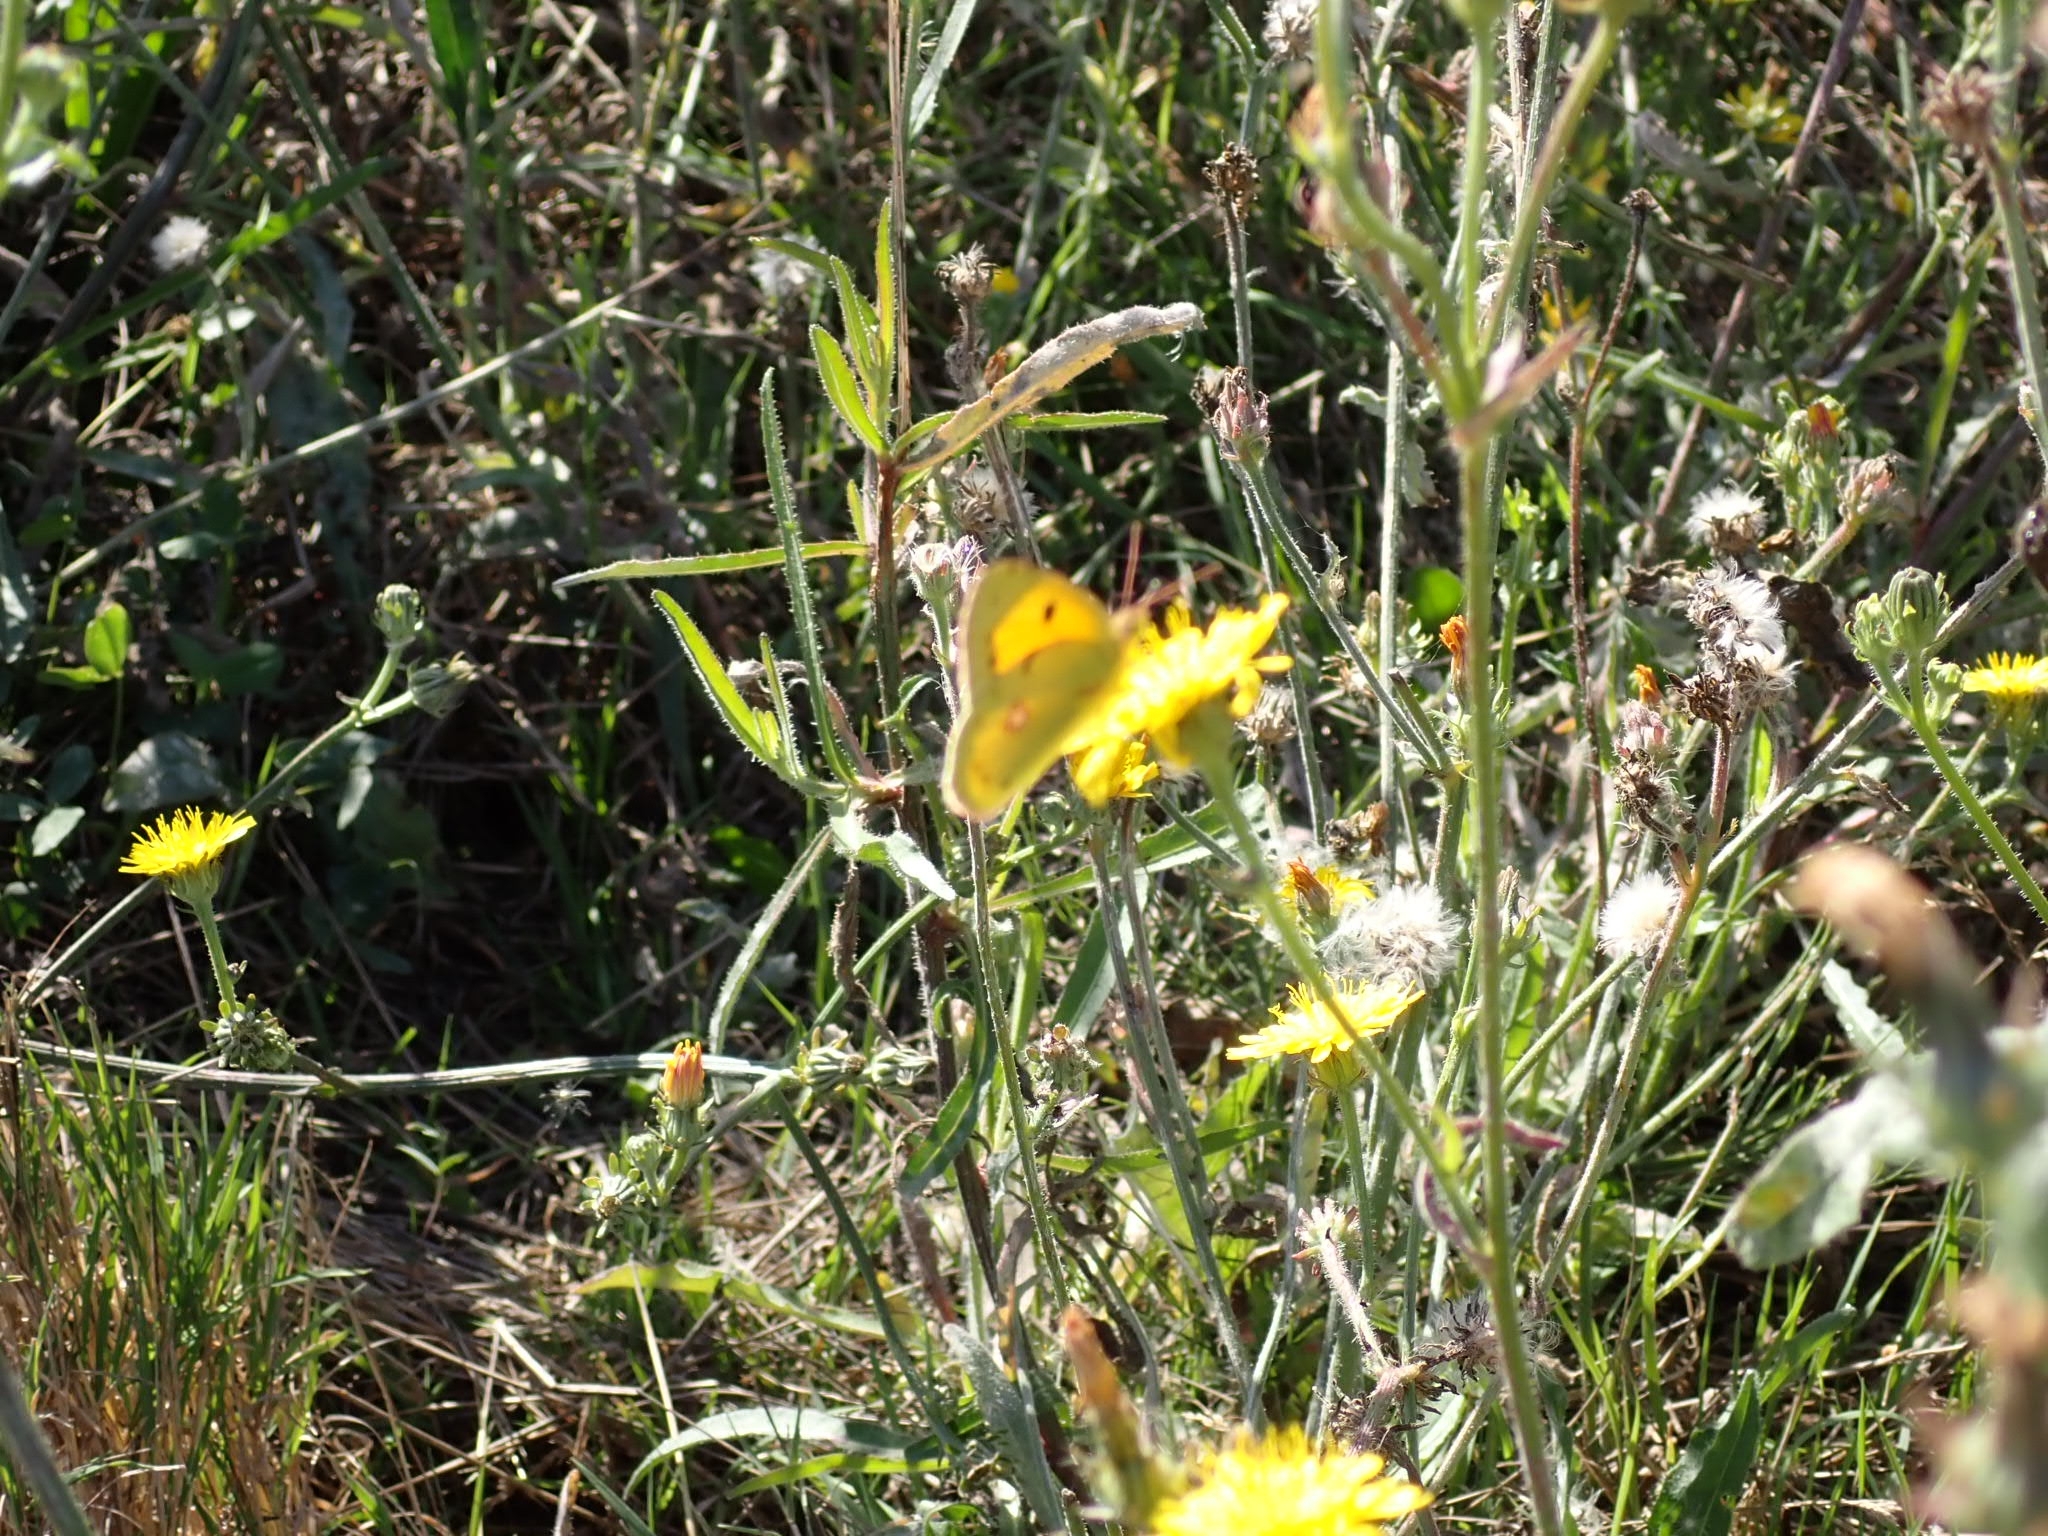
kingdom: Animalia
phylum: Arthropoda
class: Insecta
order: Lepidoptera
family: Pieridae
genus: Colias
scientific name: Colias croceus
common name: Clouded yellow
